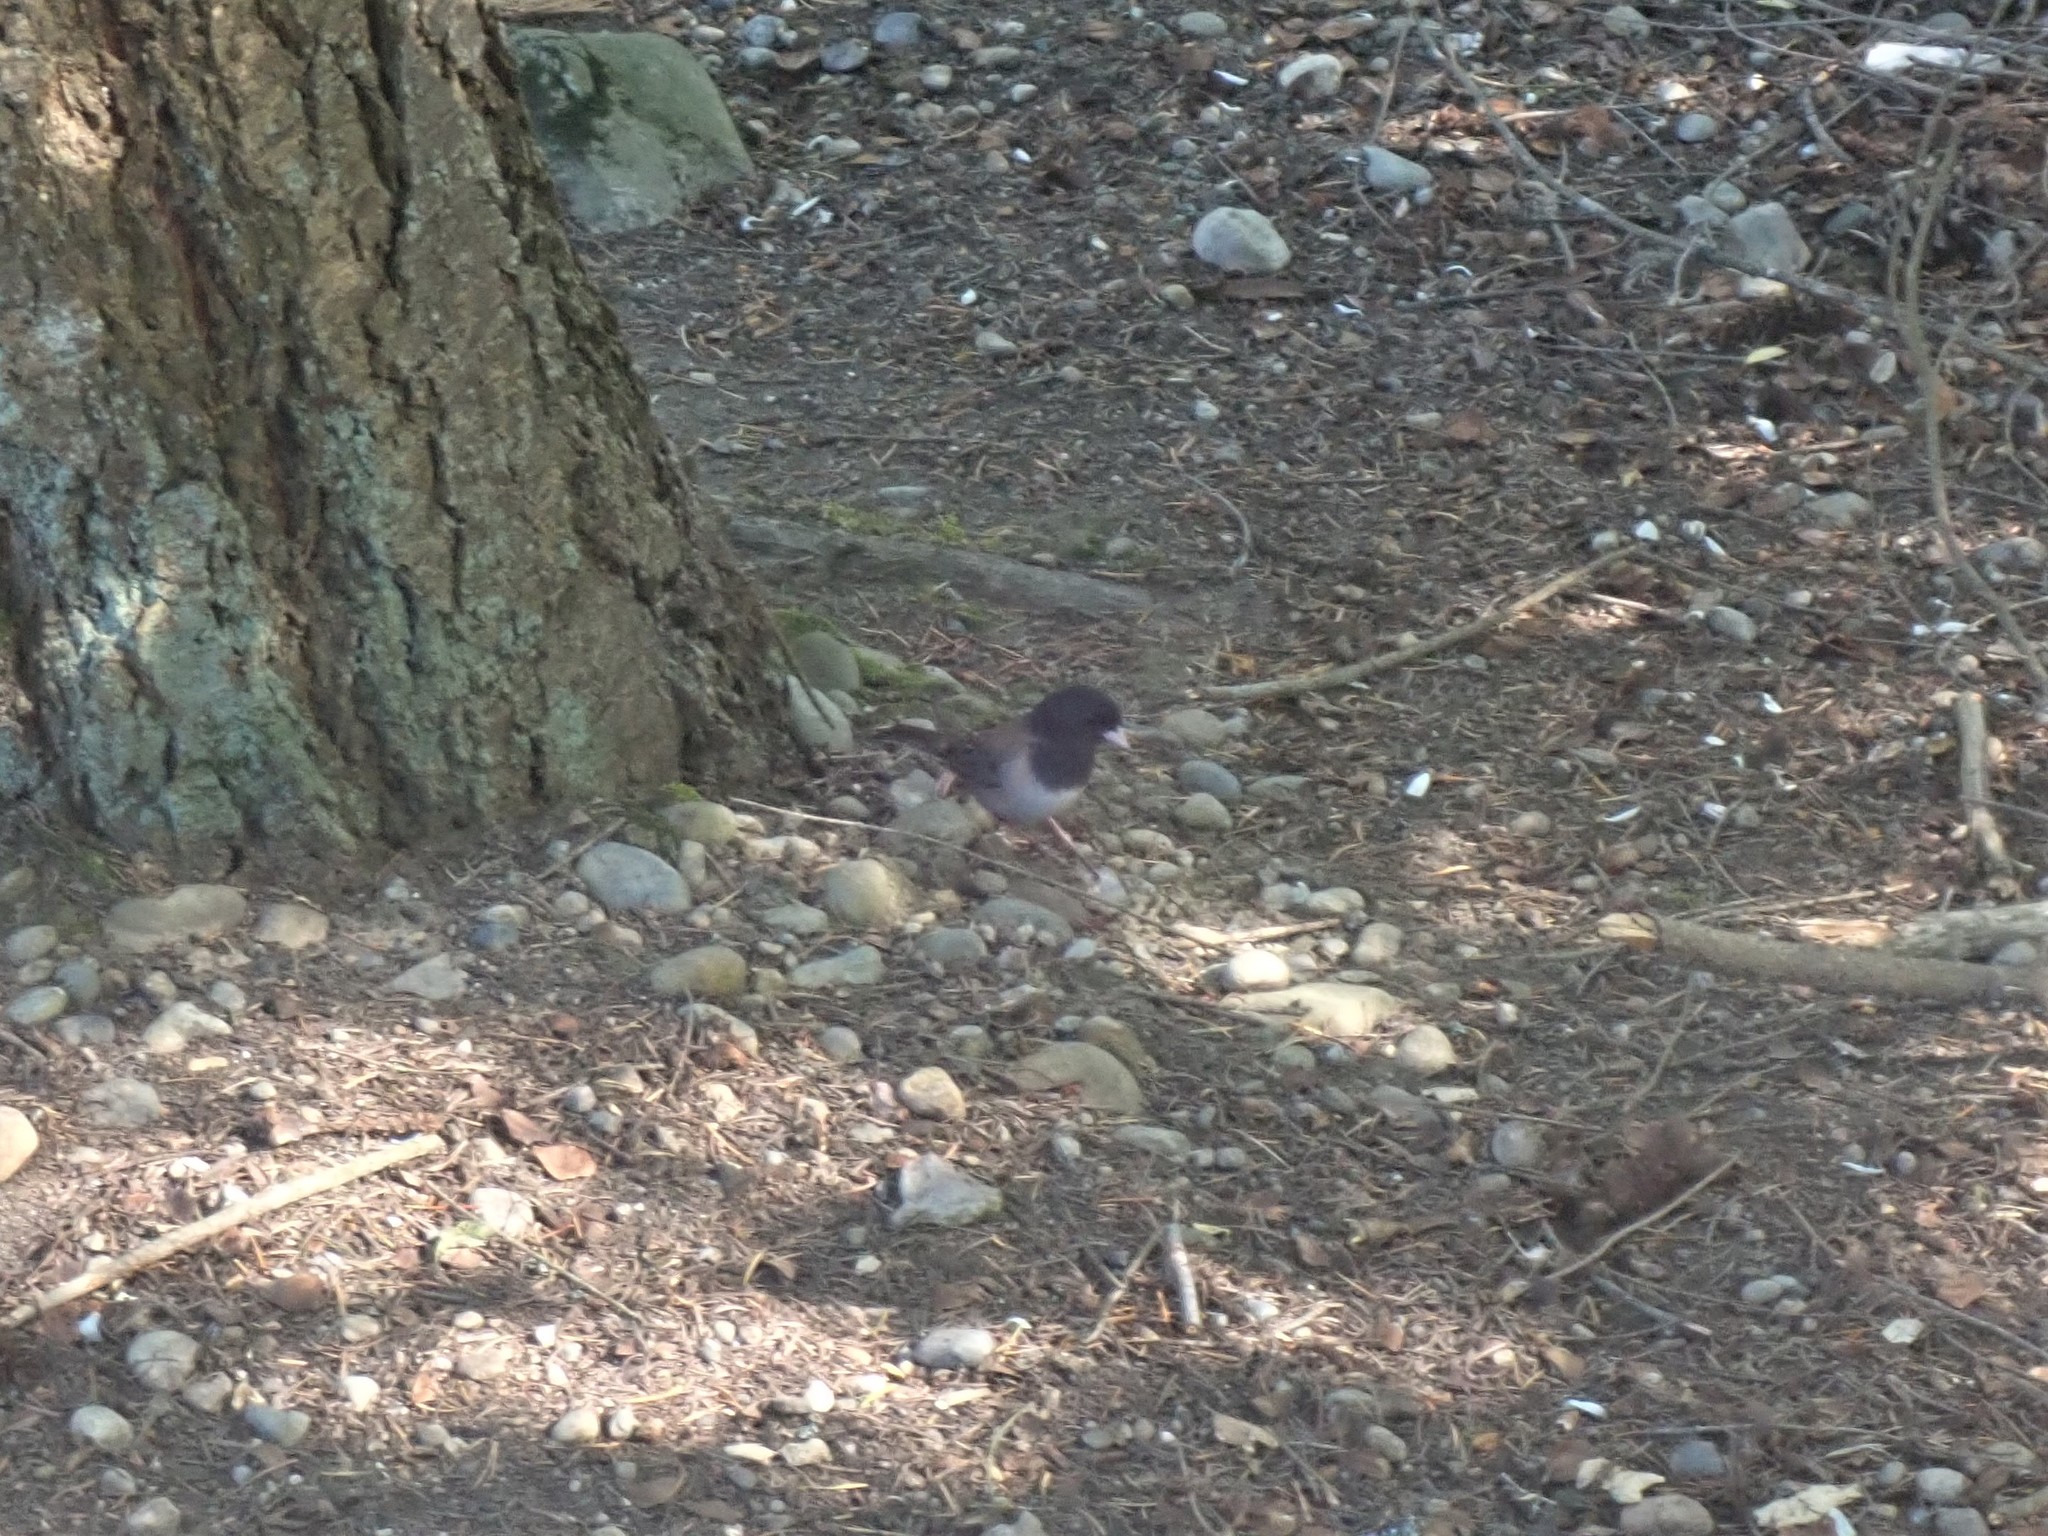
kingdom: Animalia
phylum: Chordata
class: Aves
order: Passeriformes
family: Passerellidae
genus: Junco
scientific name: Junco hyemalis
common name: Dark-eyed junco
